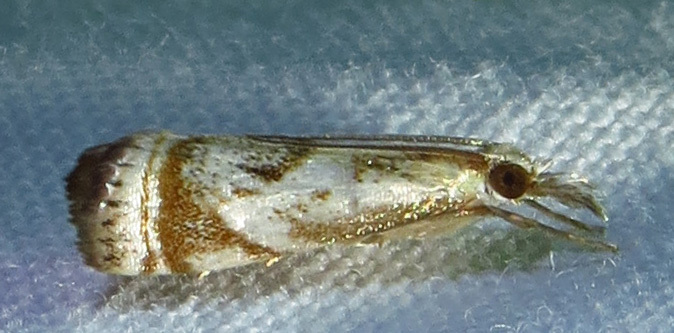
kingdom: Animalia
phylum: Arthropoda
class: Insecta
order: Lepidoptera
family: Crambidae
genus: Microcrambus
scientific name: Microcrambus elegans
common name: Elegant grass-veneer
